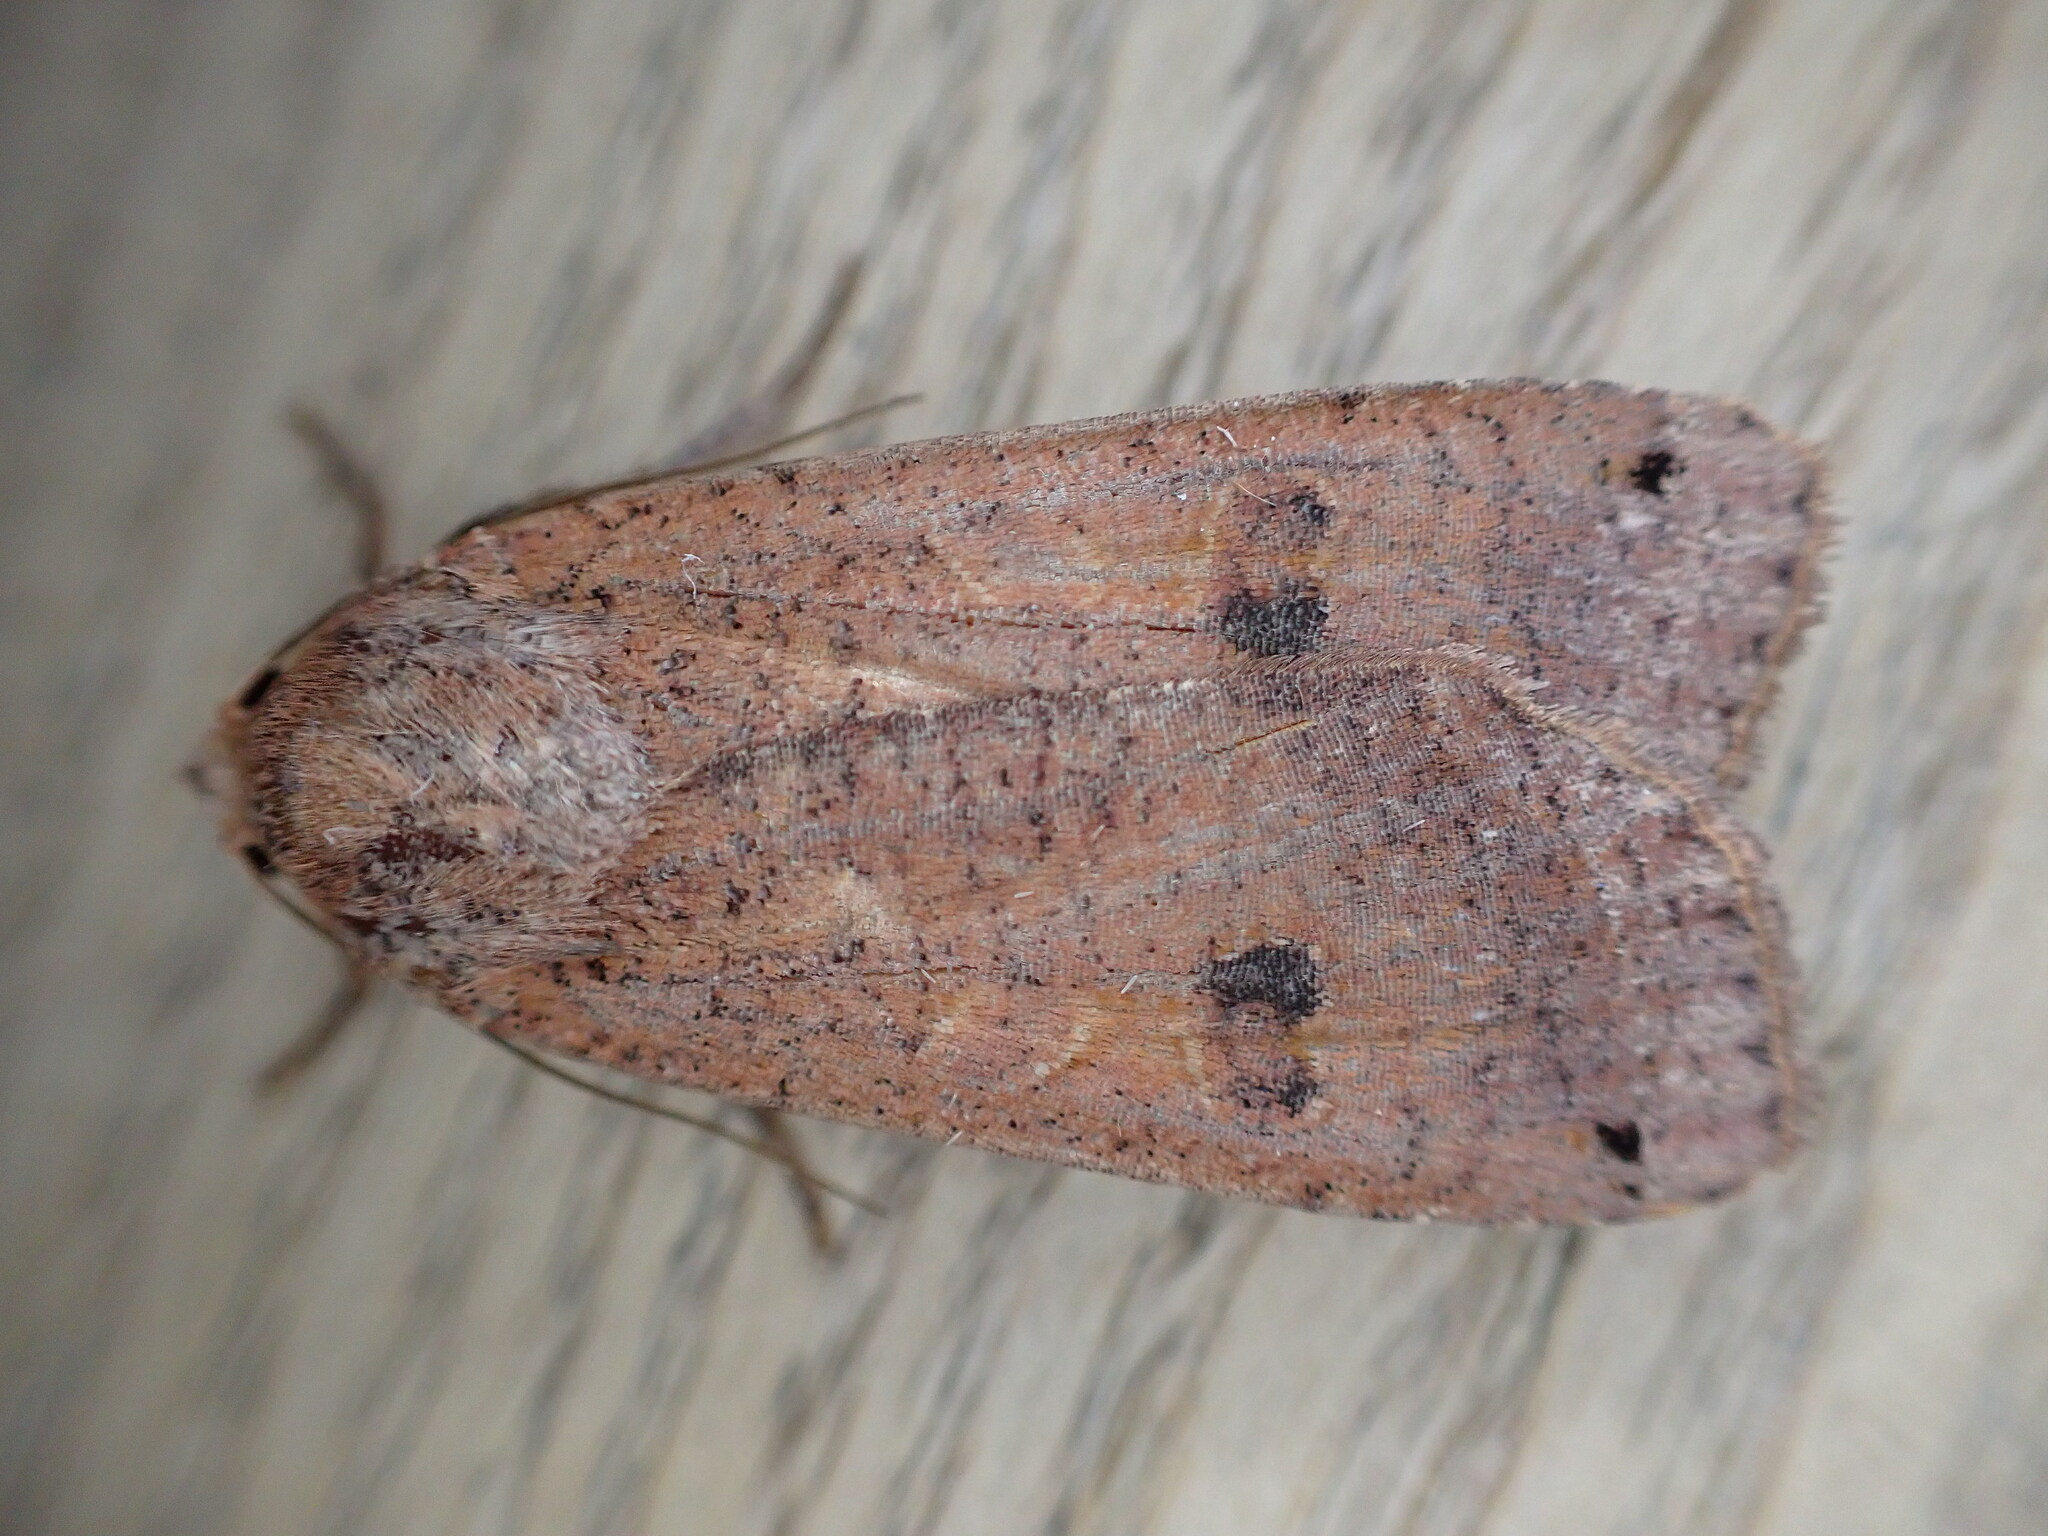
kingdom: Animalia
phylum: Arthropoda
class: Insecta
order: Lepidoptera
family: Noctuidae
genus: Noctua
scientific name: Noctua pronuba
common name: Large yellow underwing
